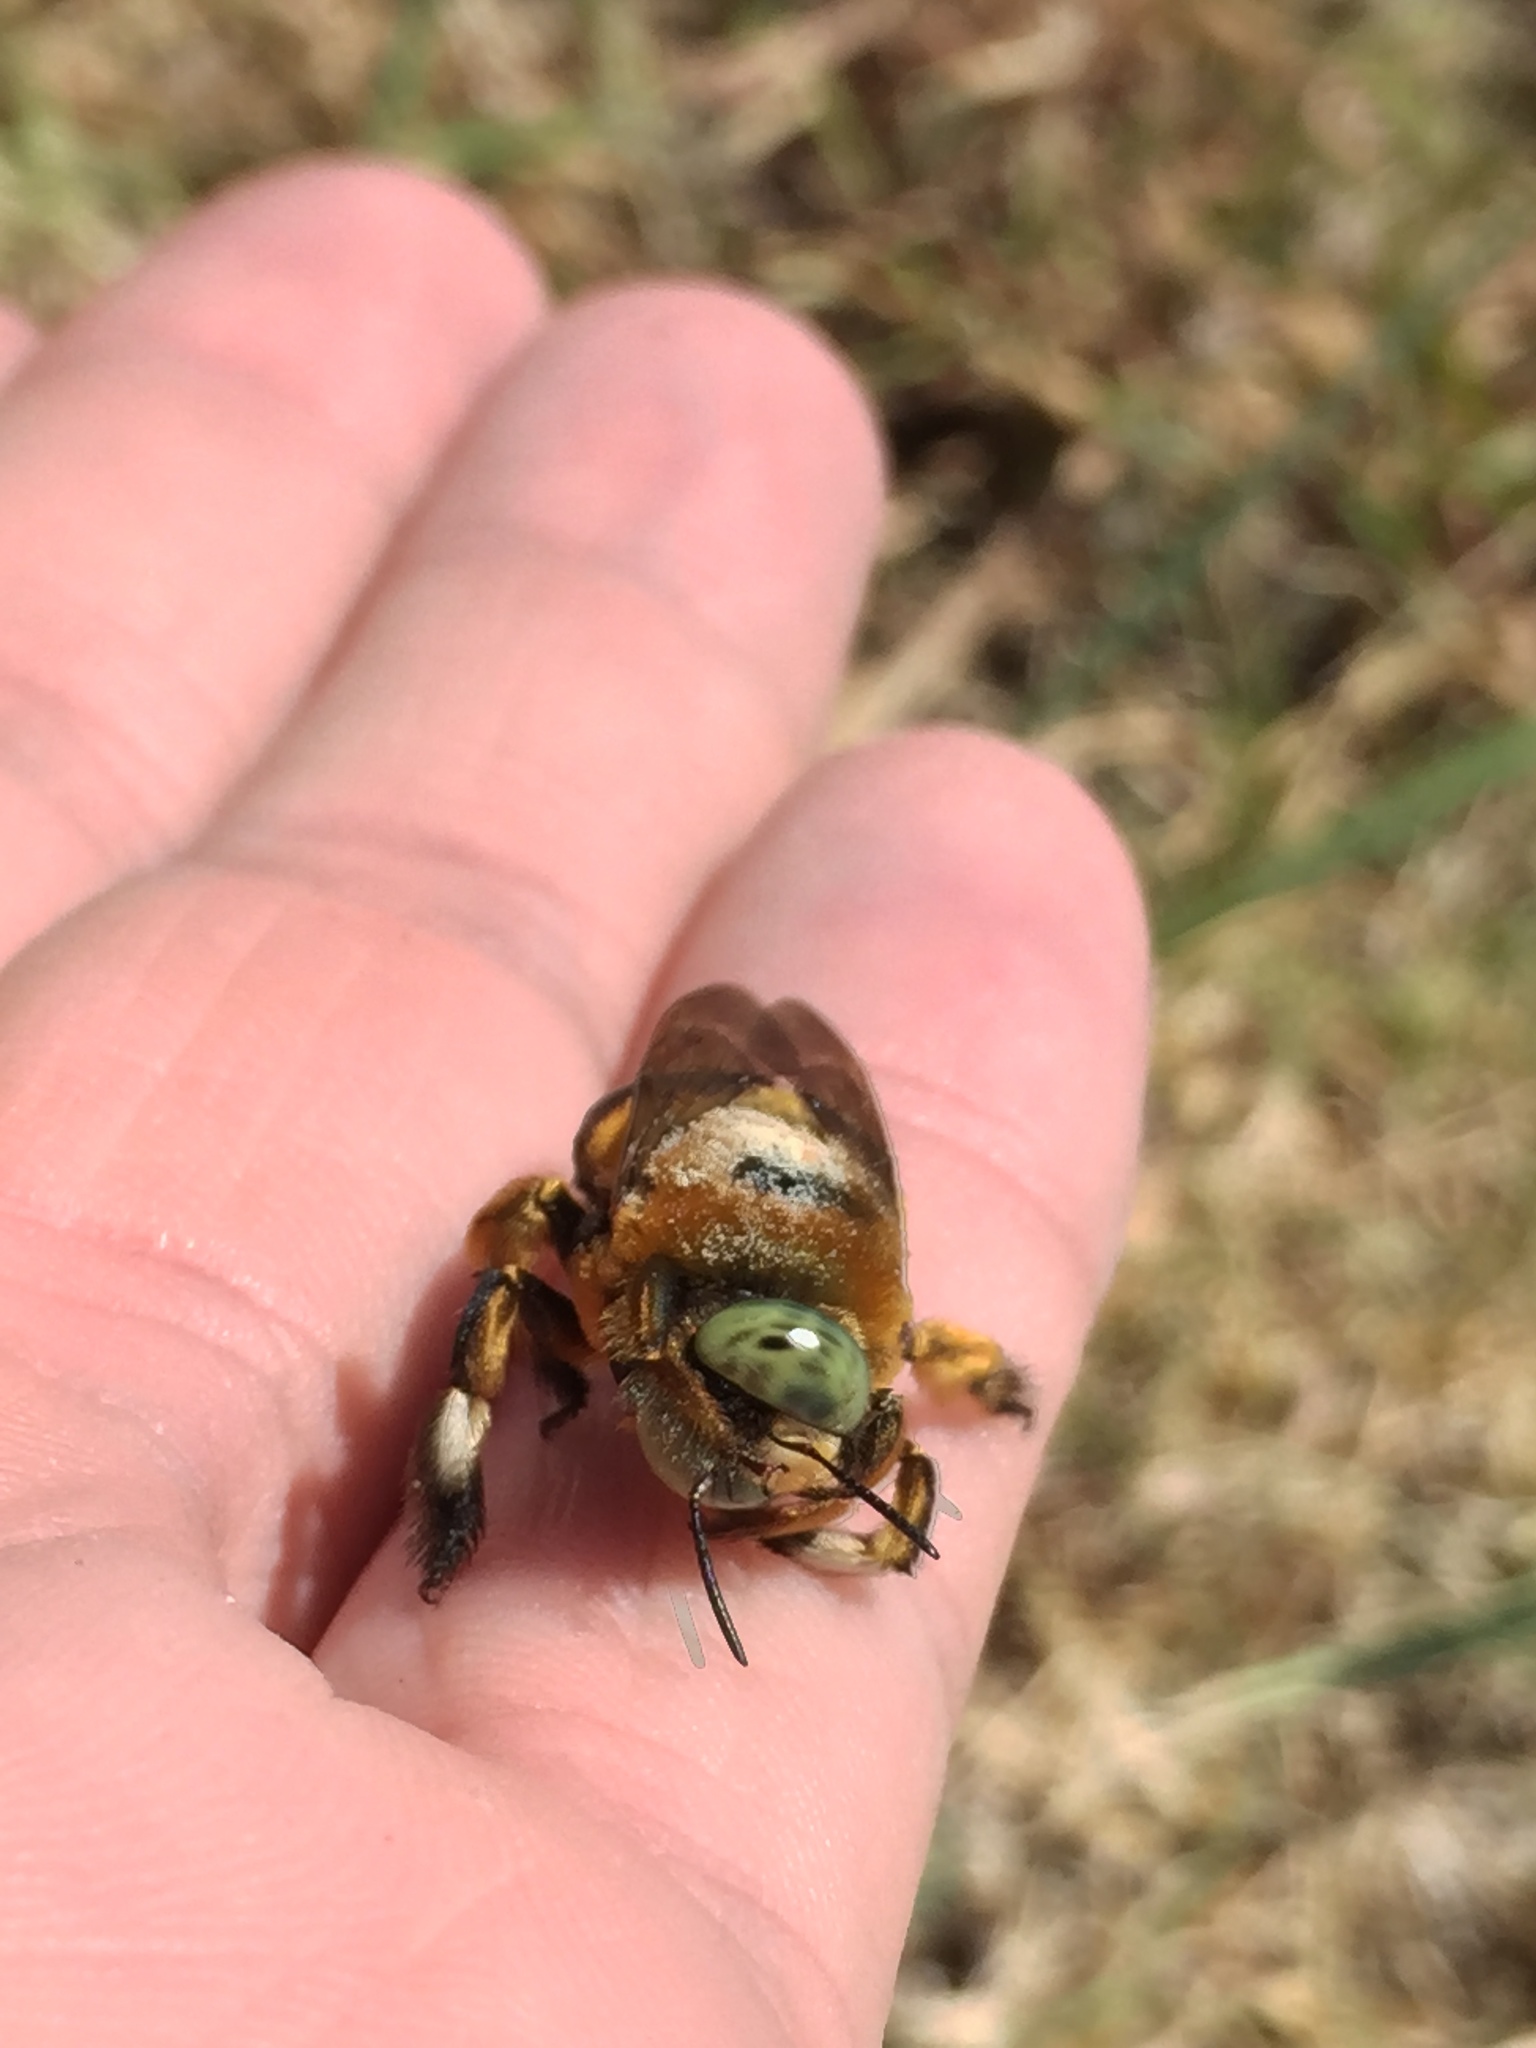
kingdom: Animalia
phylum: Arthropoda
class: Insecta
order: Hymenoptera
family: Apidae
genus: Xylocopa
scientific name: Xylocopa micans
